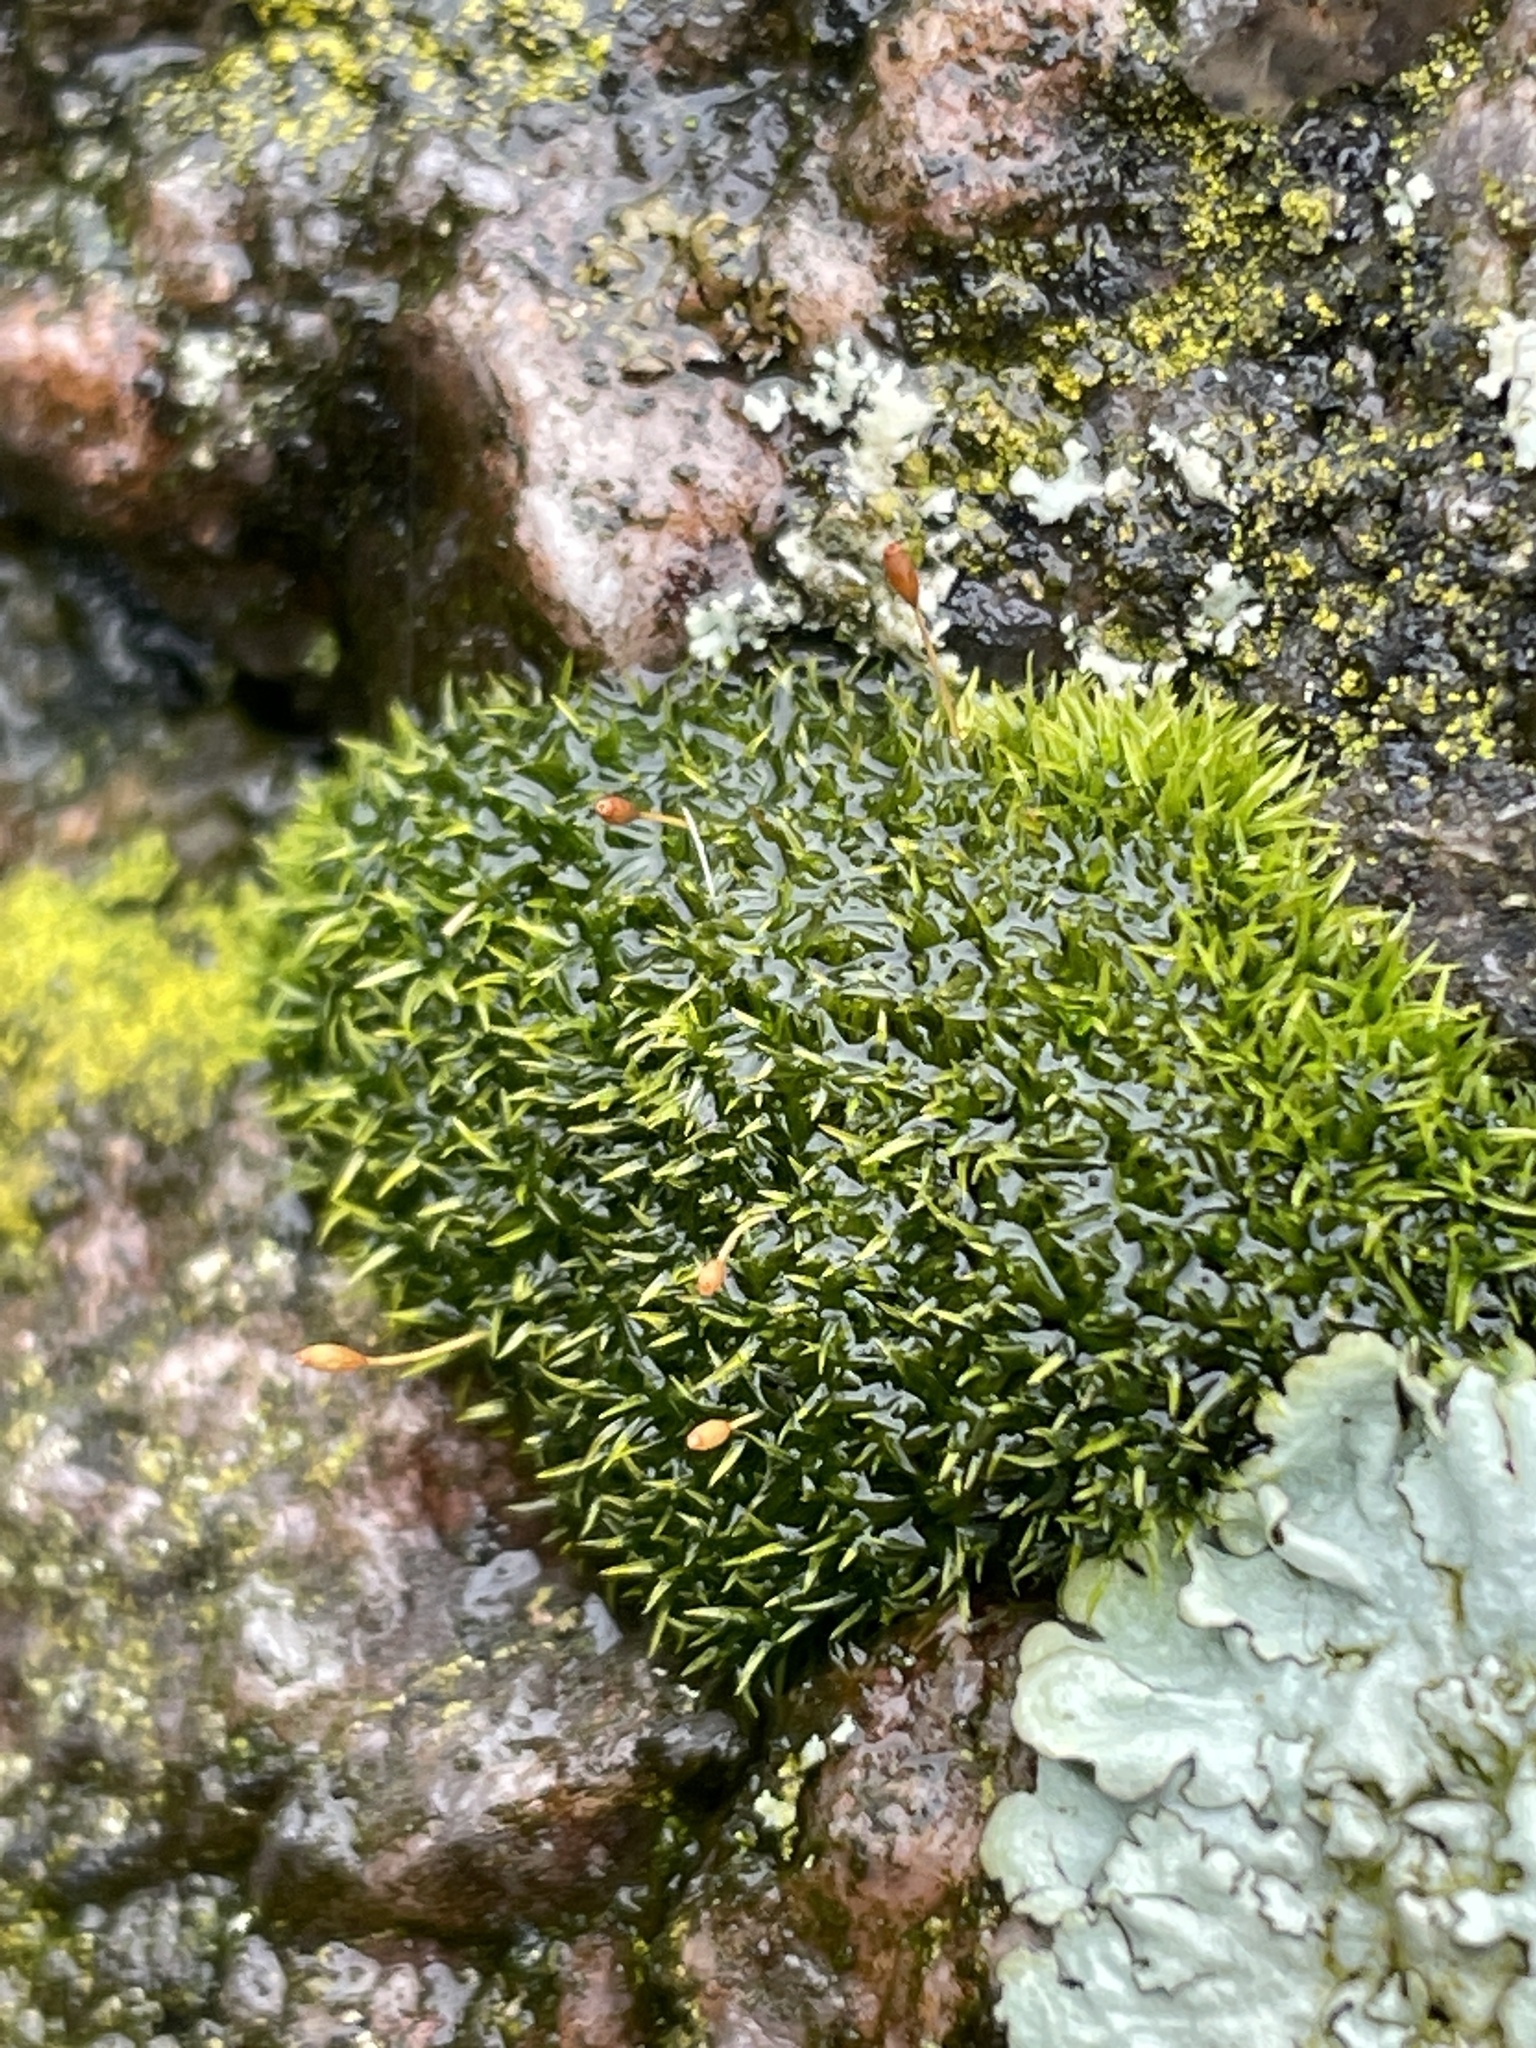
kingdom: Plantae
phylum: Bryophyta
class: Bryopsida
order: Dicranales
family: Rhabdoweisiaceae
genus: Dicranoweisia
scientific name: Dicranoweisia cirrata
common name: Common pincushion
